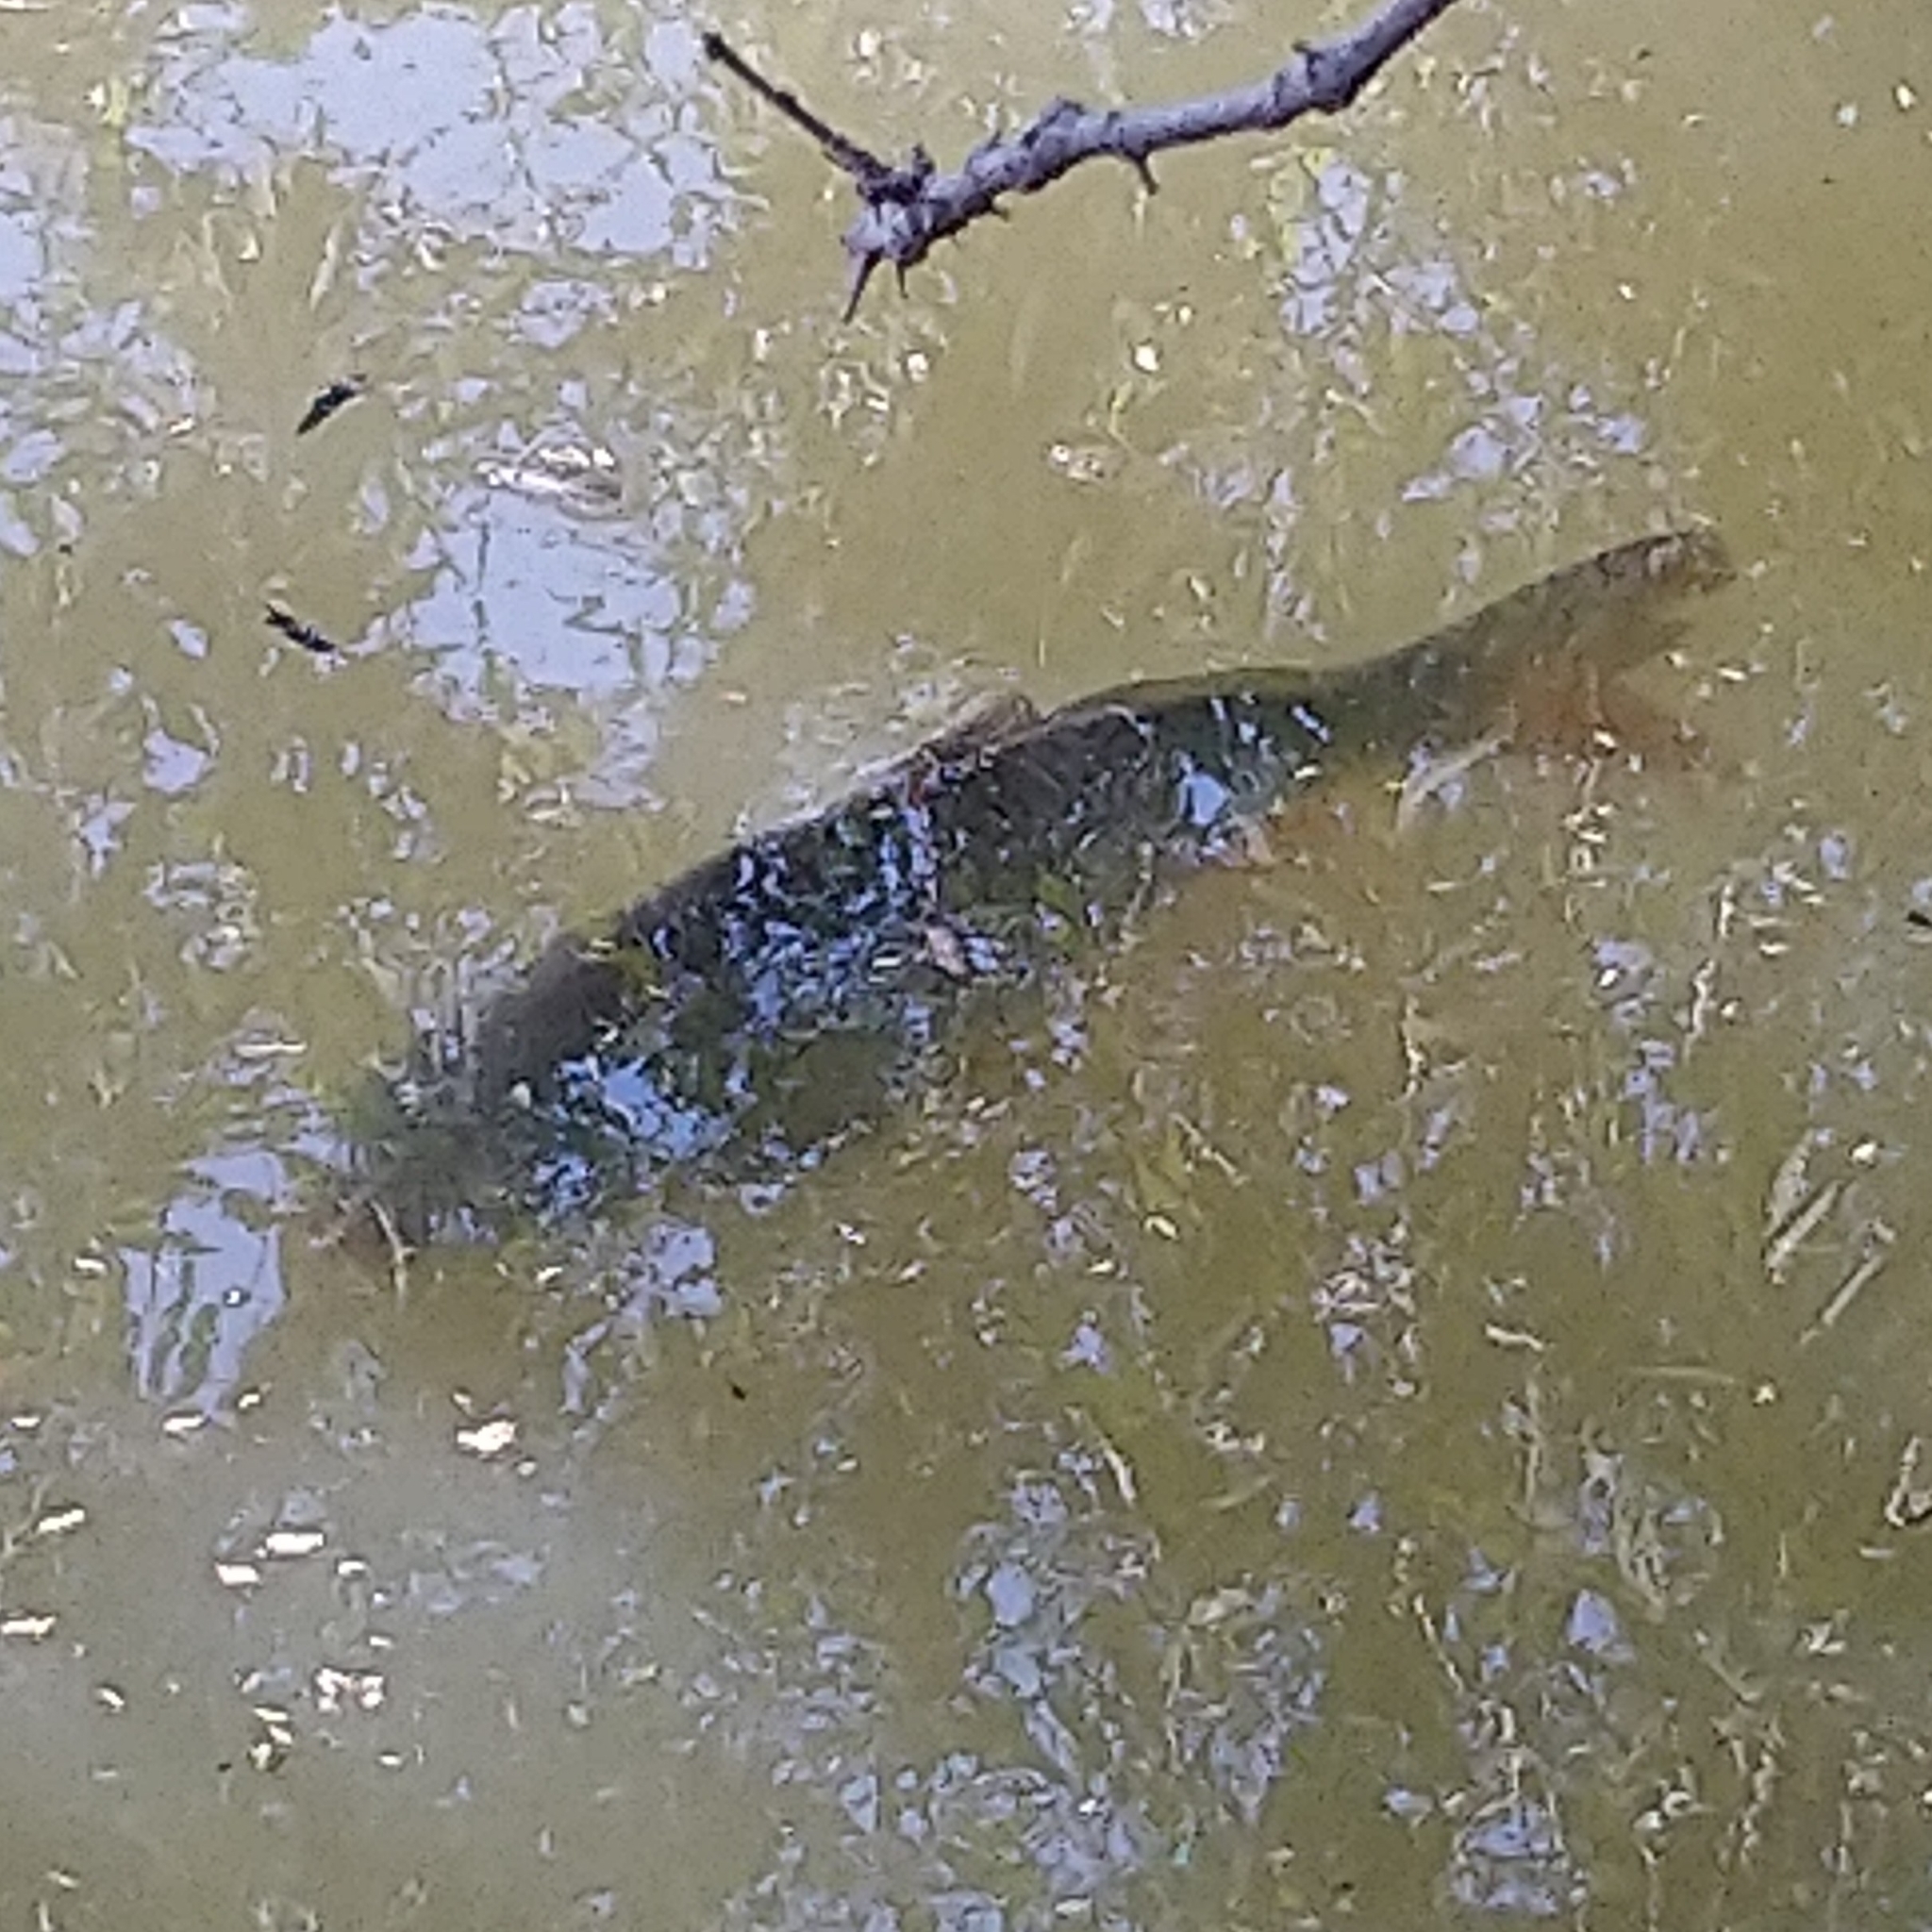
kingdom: Animalia
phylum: Chordata
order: Cypriniformes
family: Cyprinidae
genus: Cyprinus
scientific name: Cyprinus carpio
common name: Common carp
